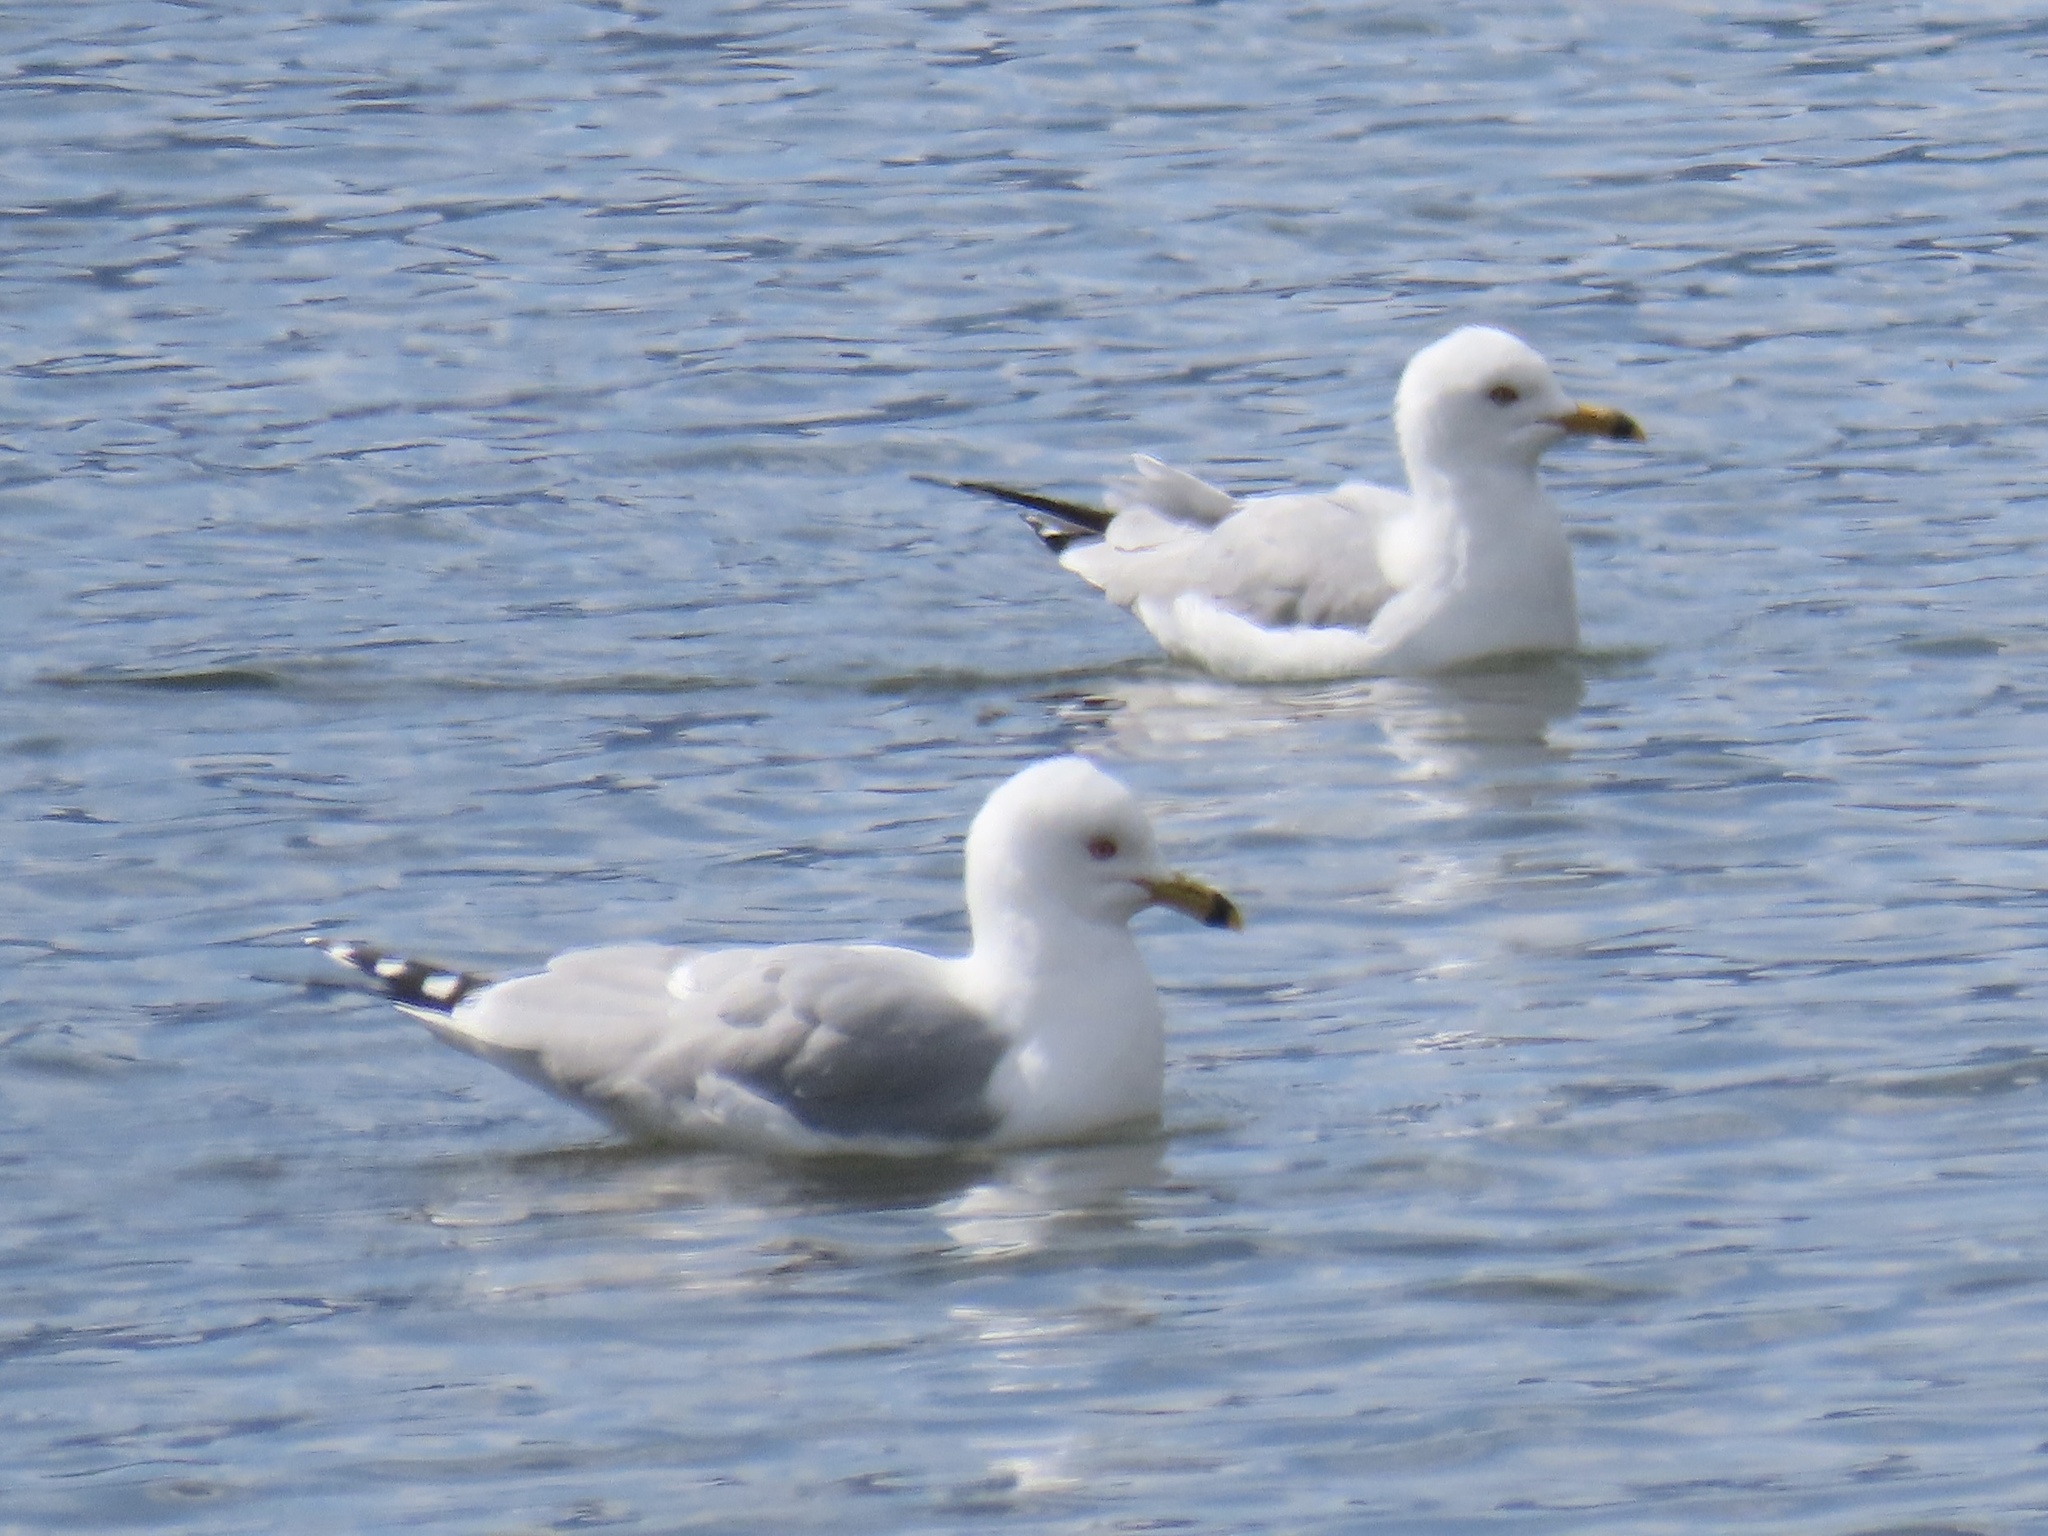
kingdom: Animalia
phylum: Chordata
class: Aves
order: Charadriiformes
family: Laridae
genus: Larus
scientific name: Larus delawarensis
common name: Ring-billed gull
